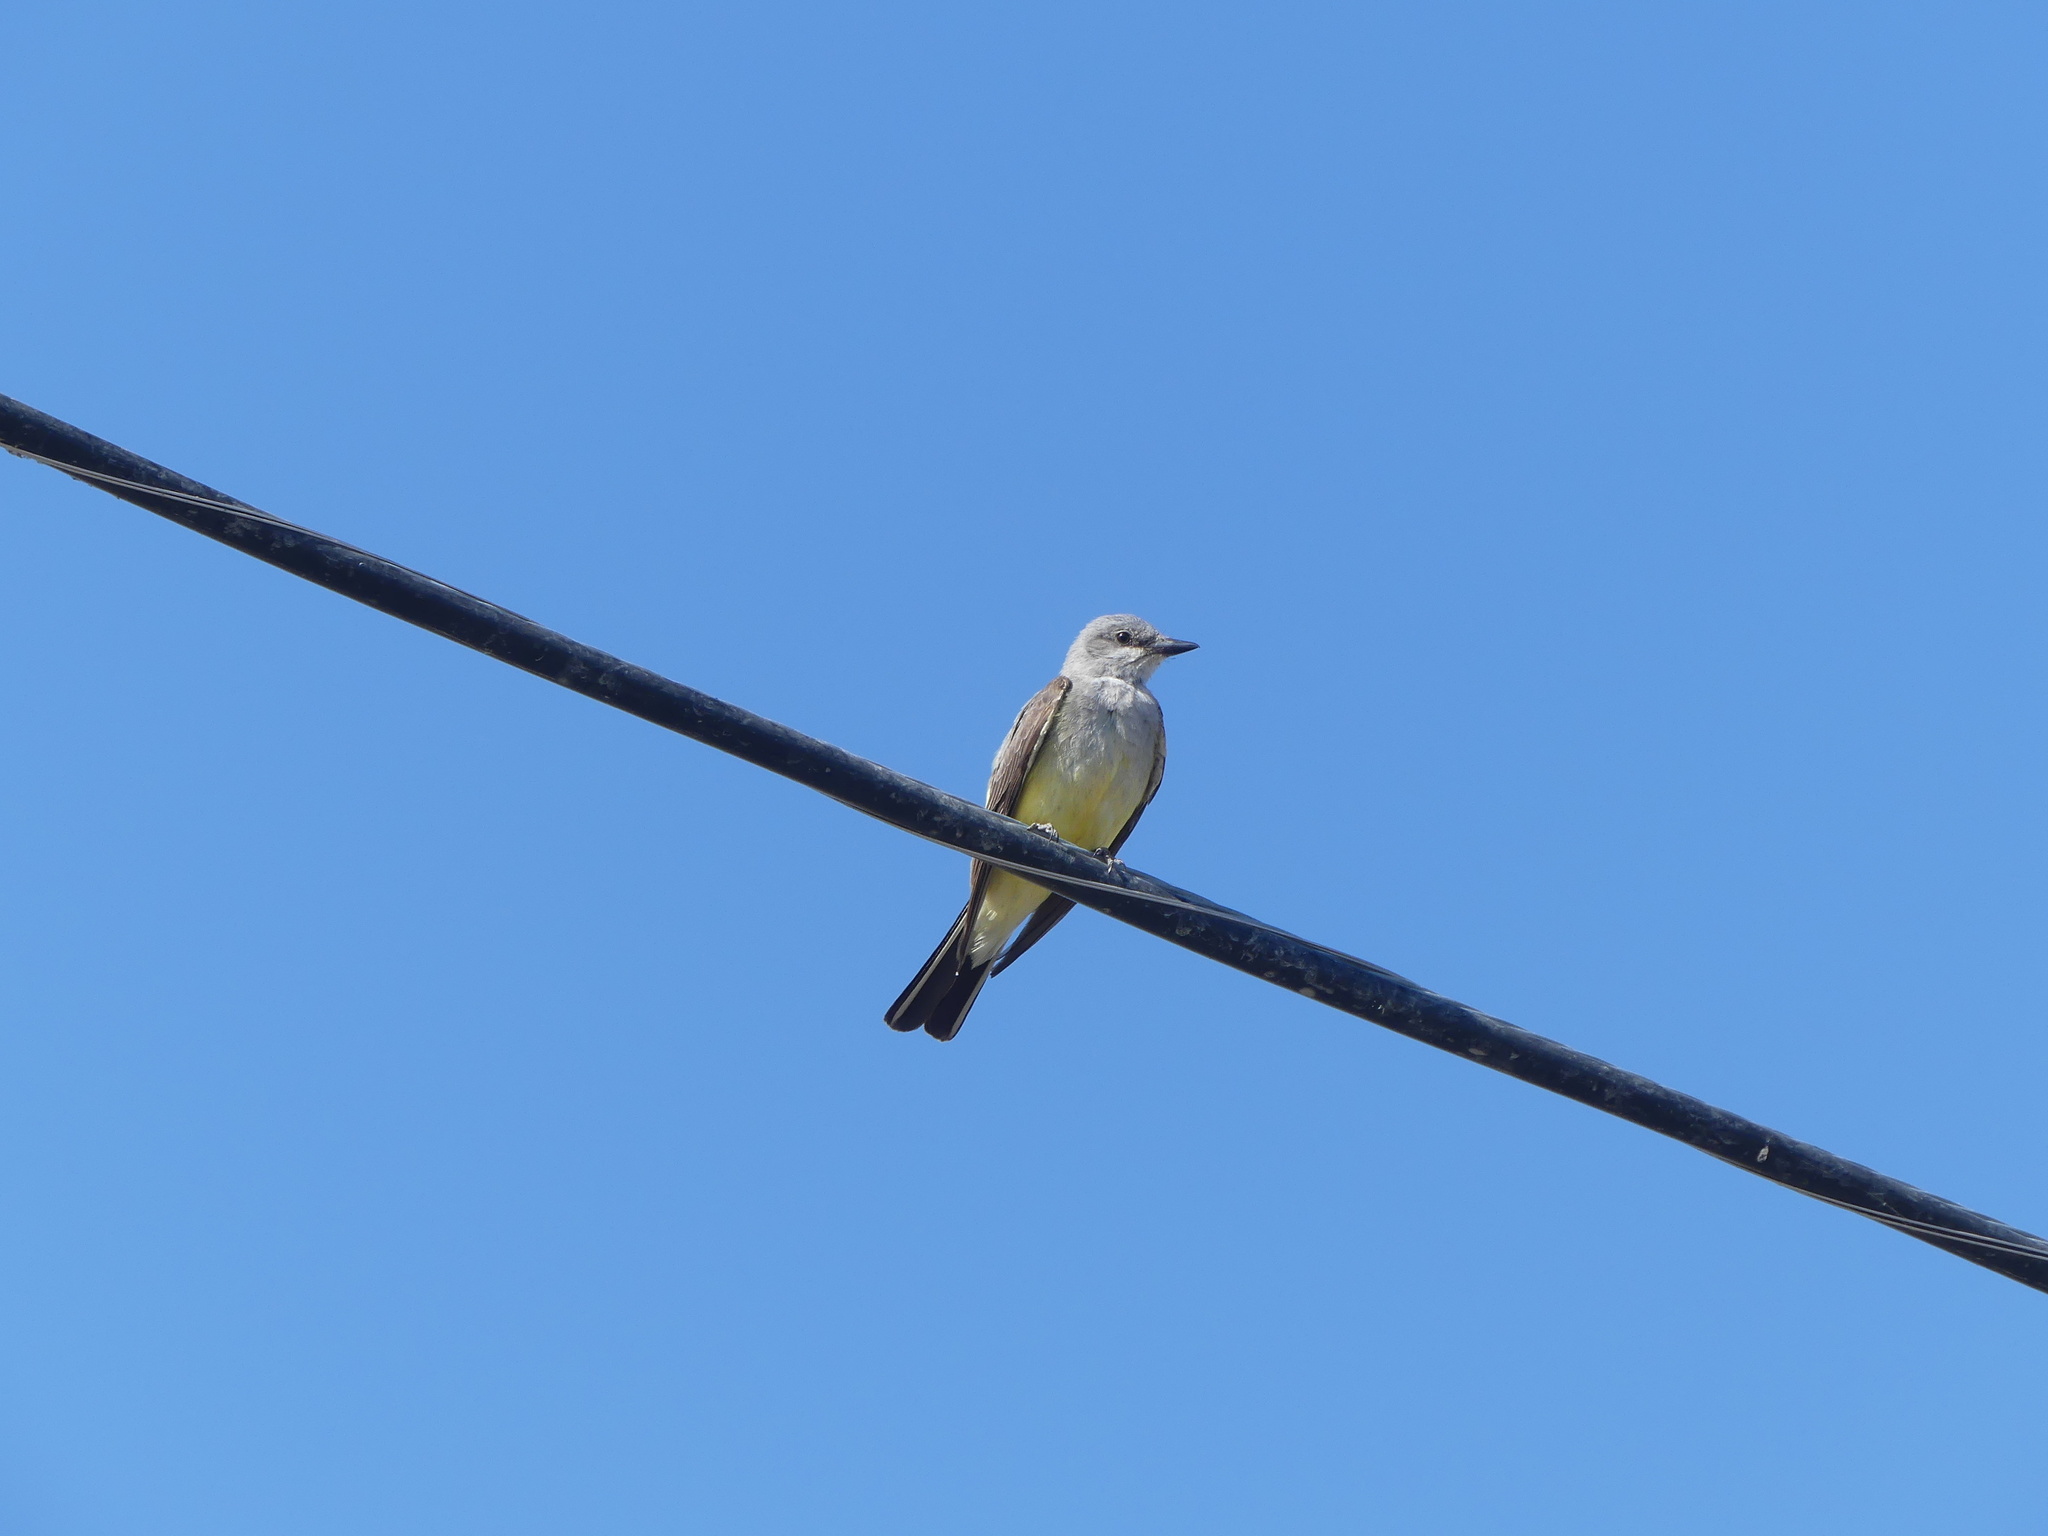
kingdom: Animalia
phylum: Chordata
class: Aves
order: Passeriformes
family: Tyrannidae
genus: Tyrannus
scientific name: Tyrannus verticalis
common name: Western kingbird
